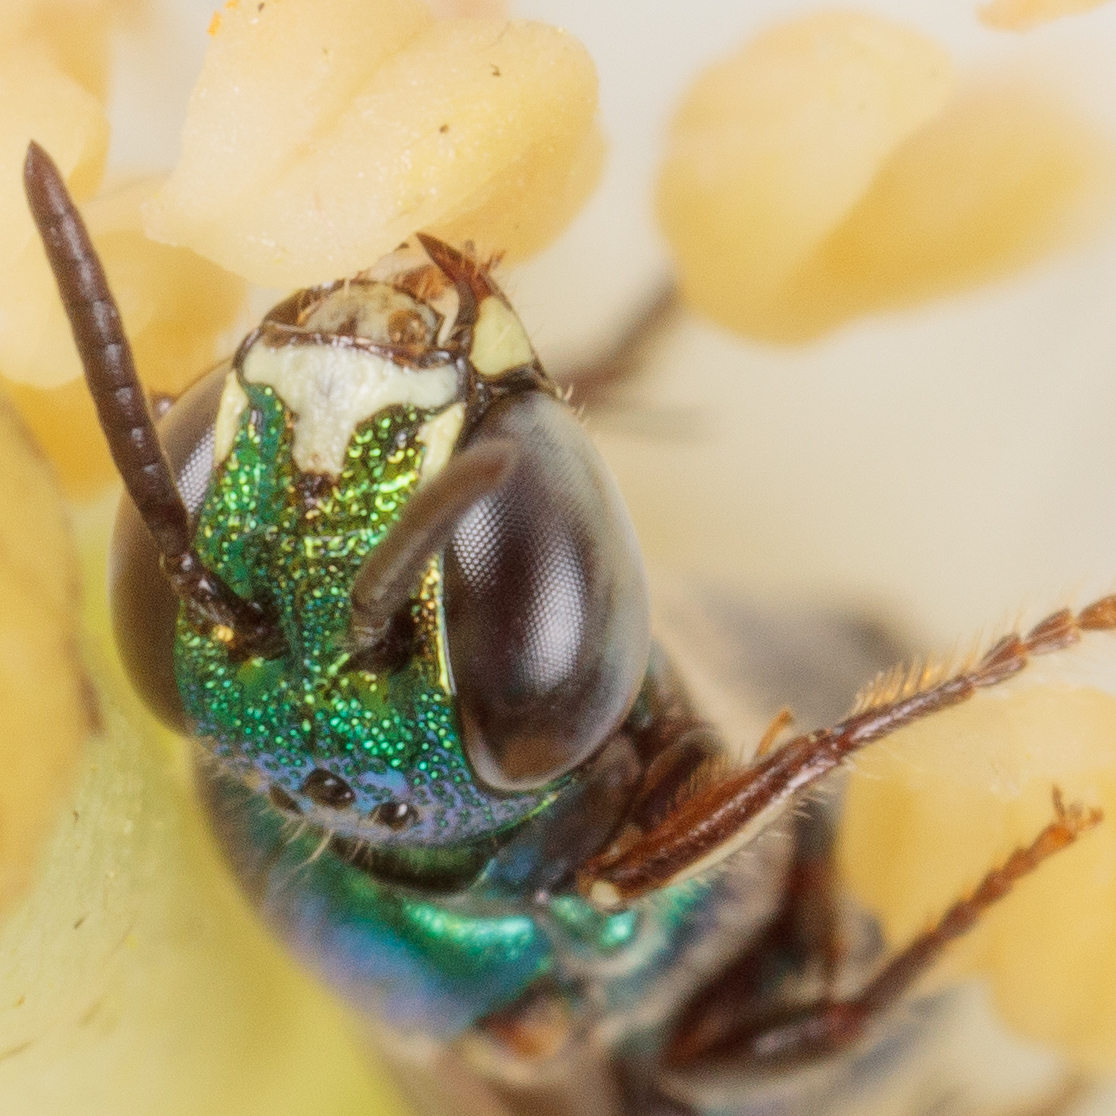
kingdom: Animalia
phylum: Arthropoda
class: Insecta
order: Hymenoptera
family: Apidae
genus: Ceratina
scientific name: Ceratina cobaltina
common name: Small carpenter bee
